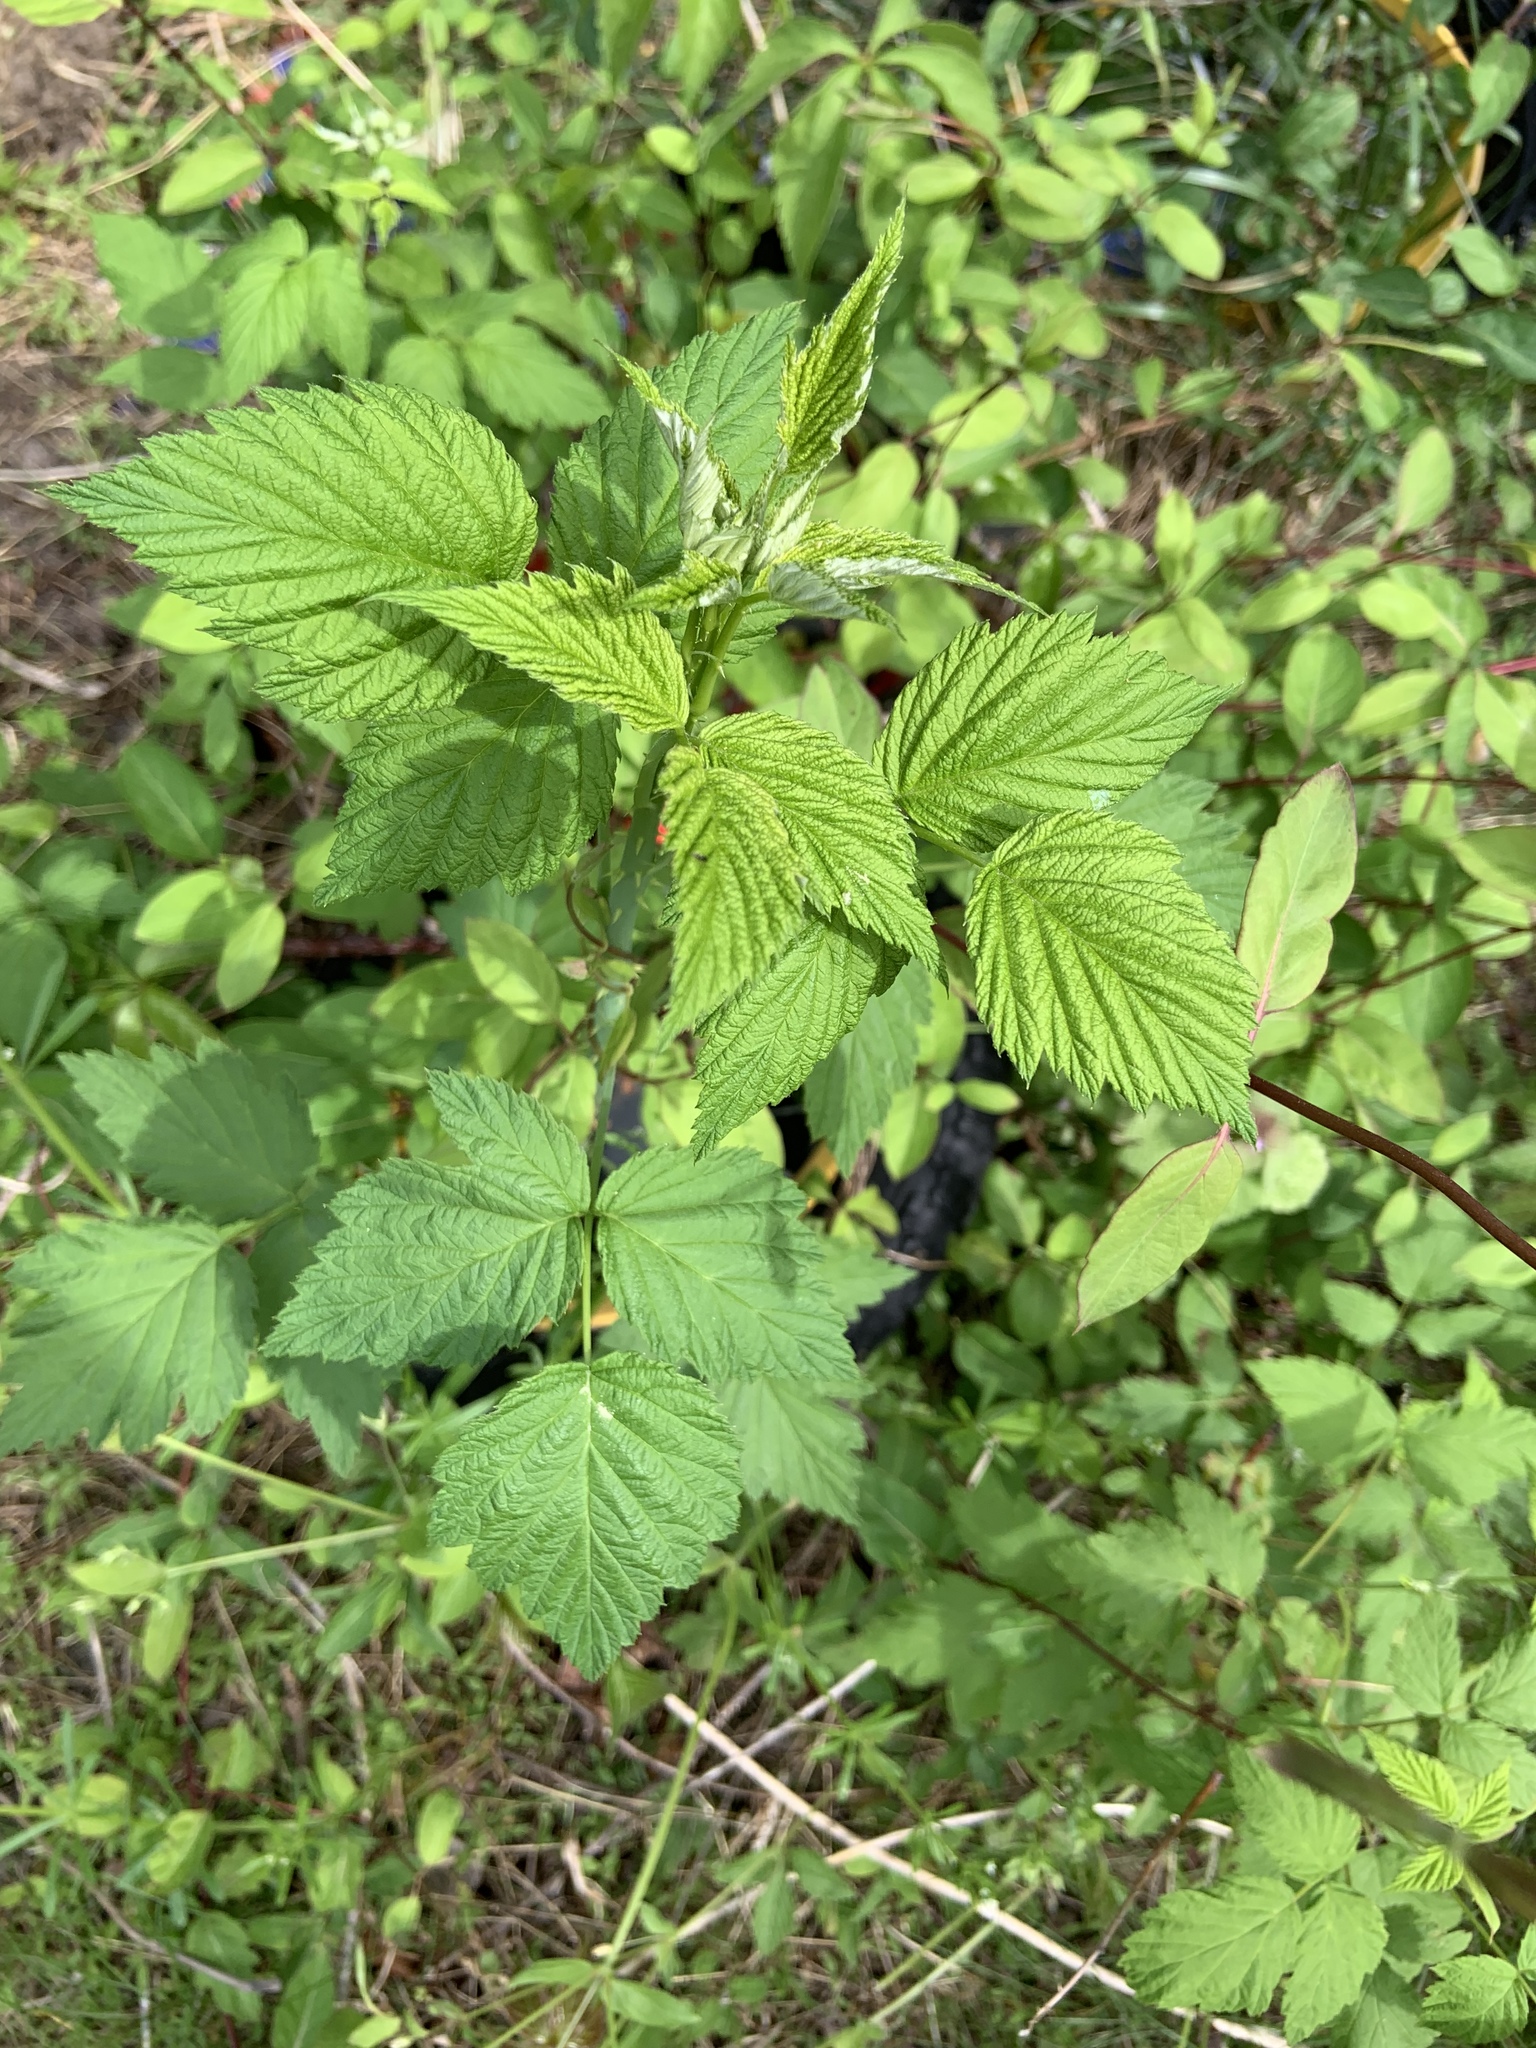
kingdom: Plantae
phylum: Tracheophyta
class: Magnoliopsida
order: Rosales
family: Rosaceae
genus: Rubus
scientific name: Rubus occidentalis
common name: Black raspberry
